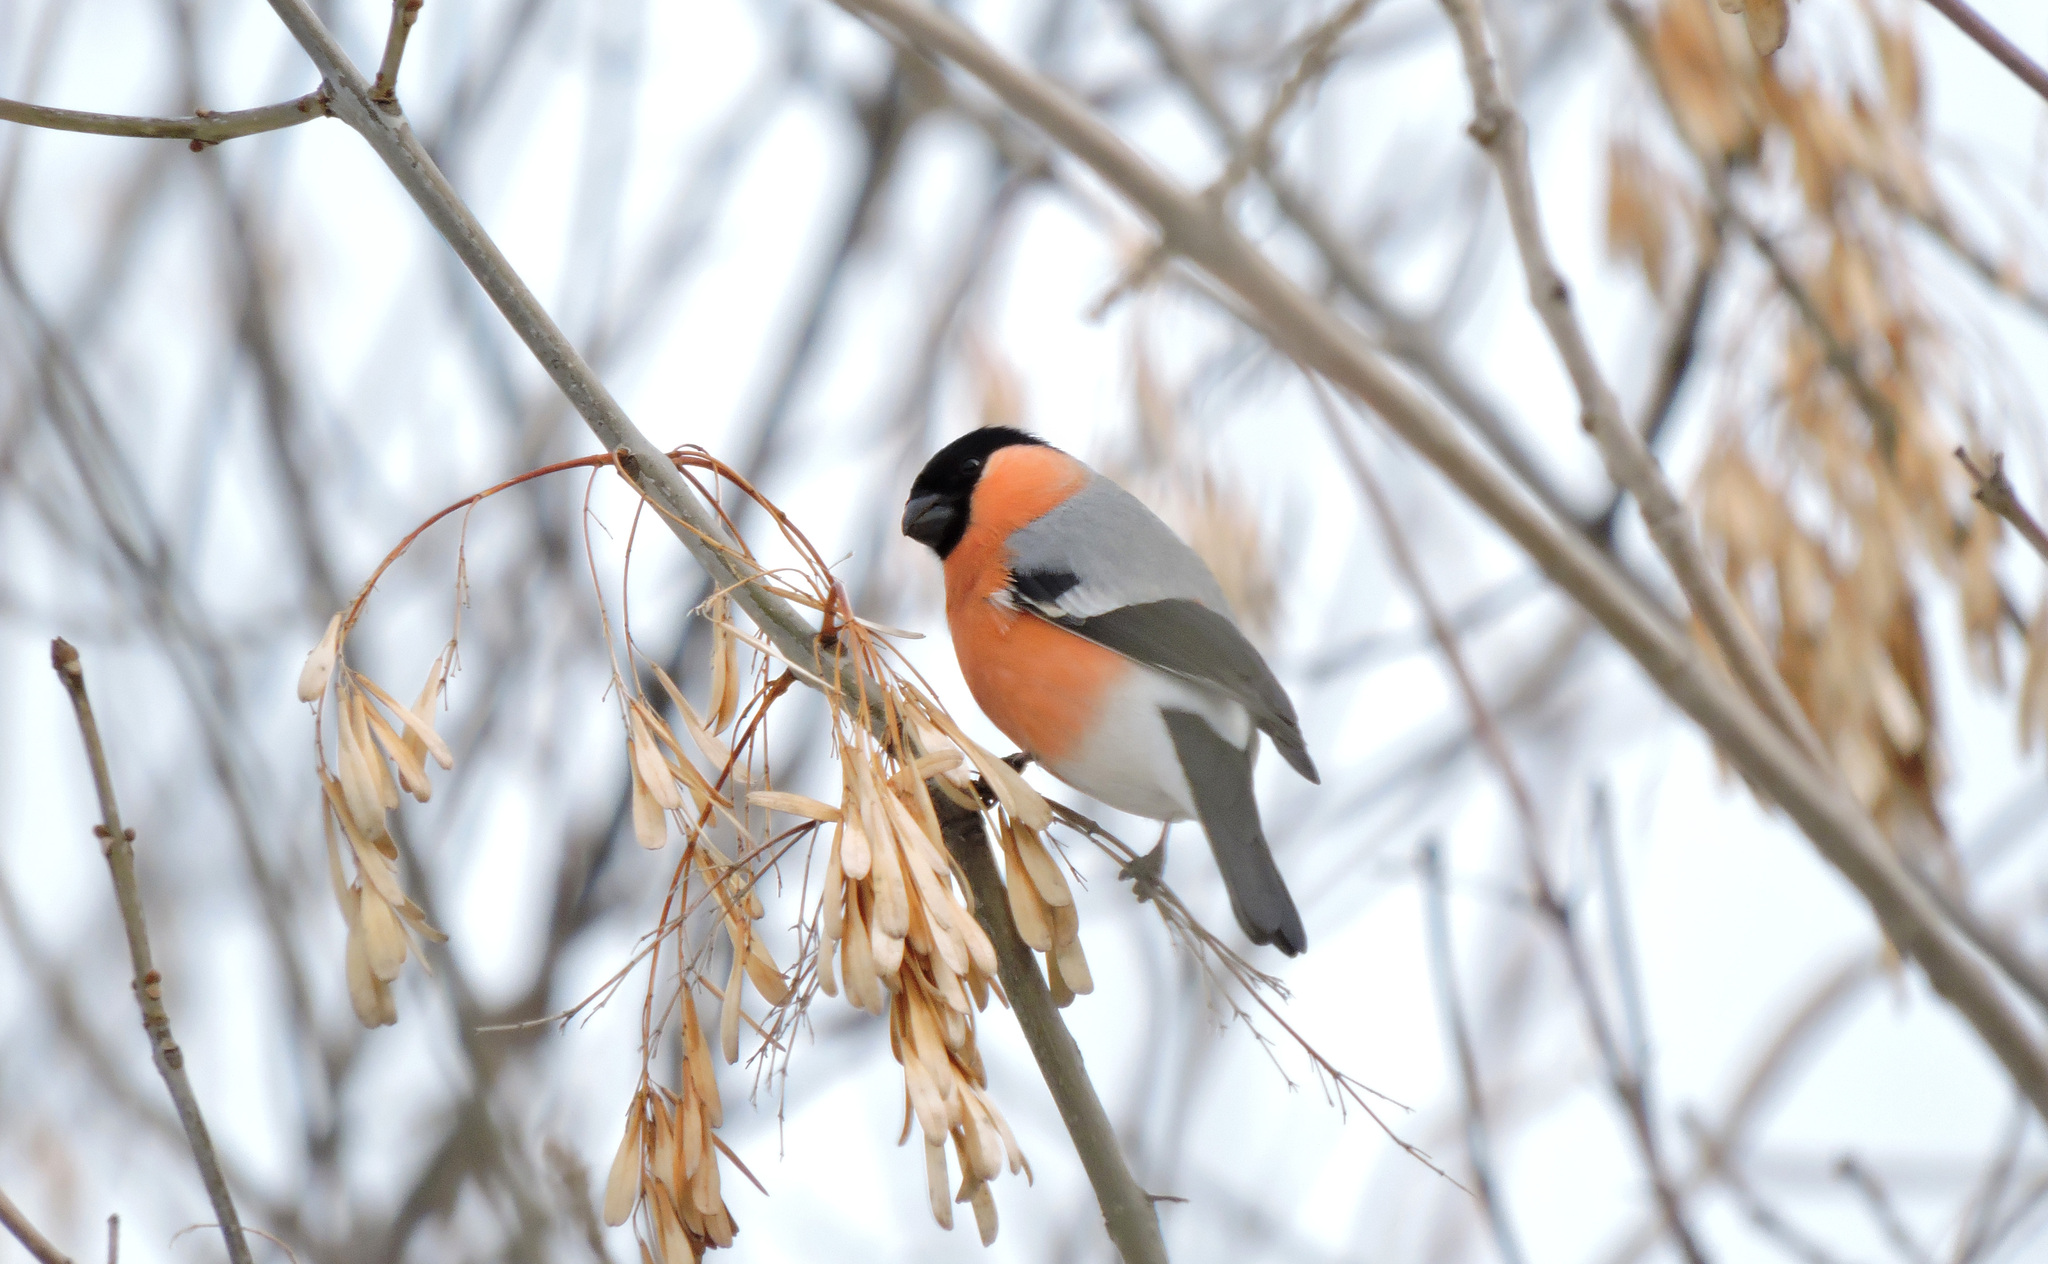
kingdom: Animalia
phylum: Chordata
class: Aves
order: Passeriformes
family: Fringillidae
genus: Pyrrhula
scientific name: Pyrrhula pyrrhula
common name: Eurasian bullfinch
